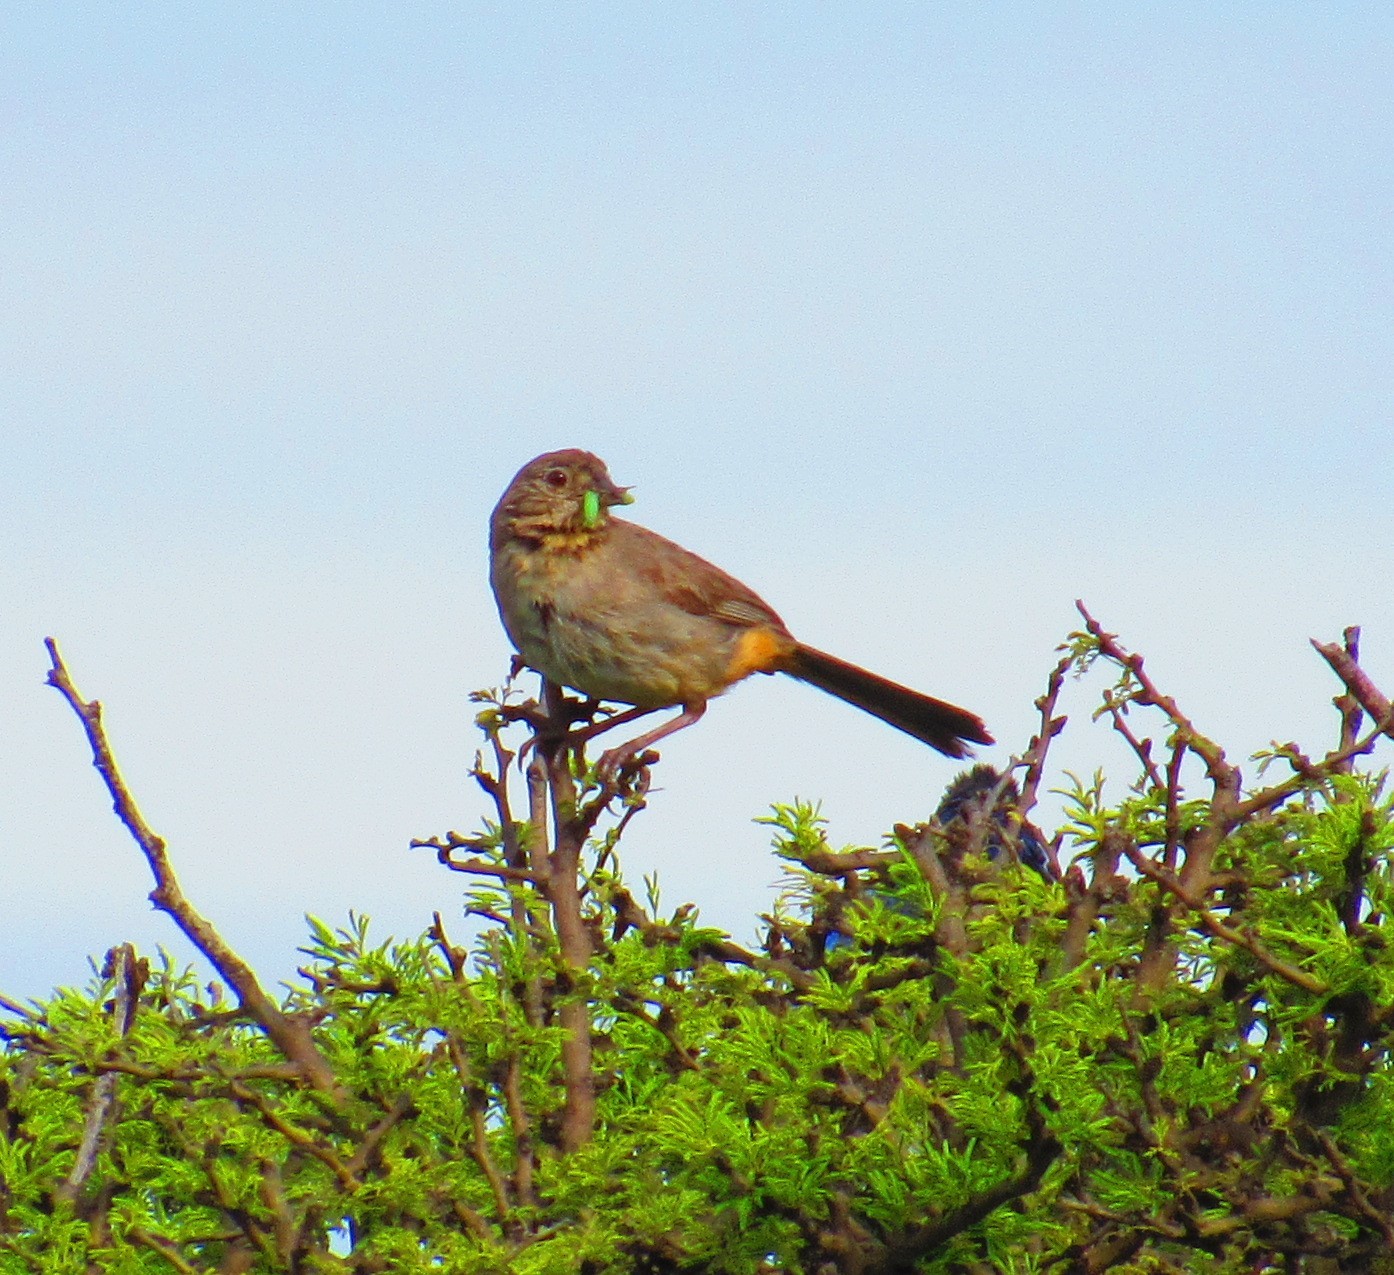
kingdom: Animalia
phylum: Chordata
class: Aves
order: Passeriformes
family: Passerellidae
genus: Melozone
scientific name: Melozone fusca
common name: Canyon towhee
